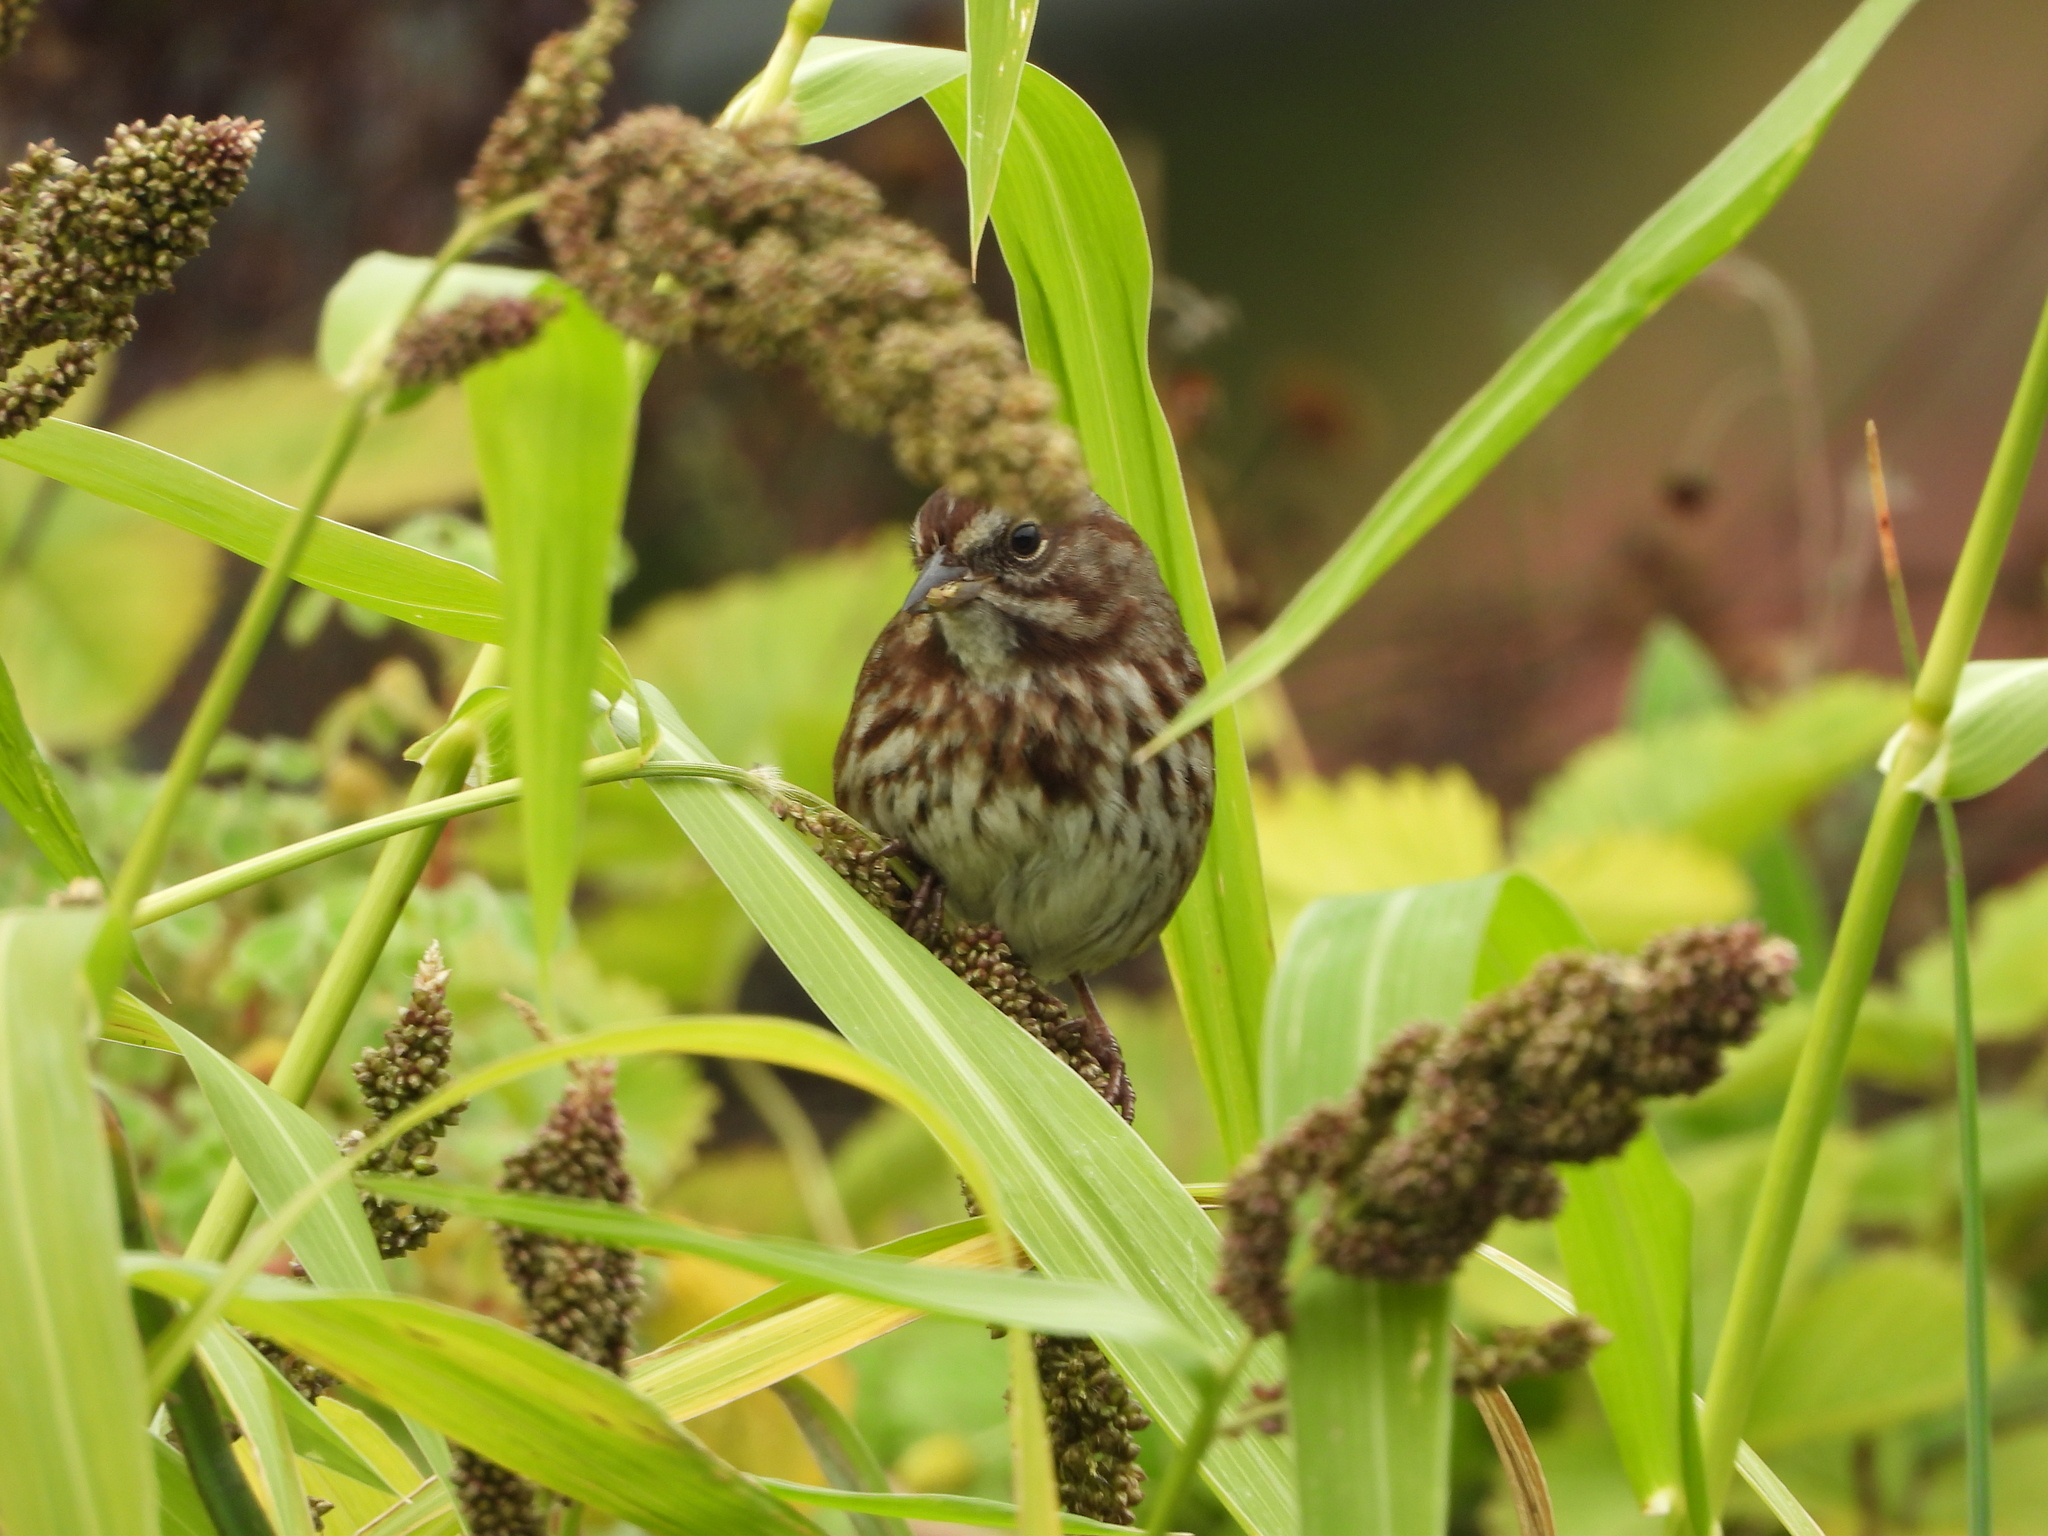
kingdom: Animalia
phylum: Chordata
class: Aves
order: Passeriformes
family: Passerellidae
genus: Melospiza
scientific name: Melospiza melodia
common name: Song sparrow
